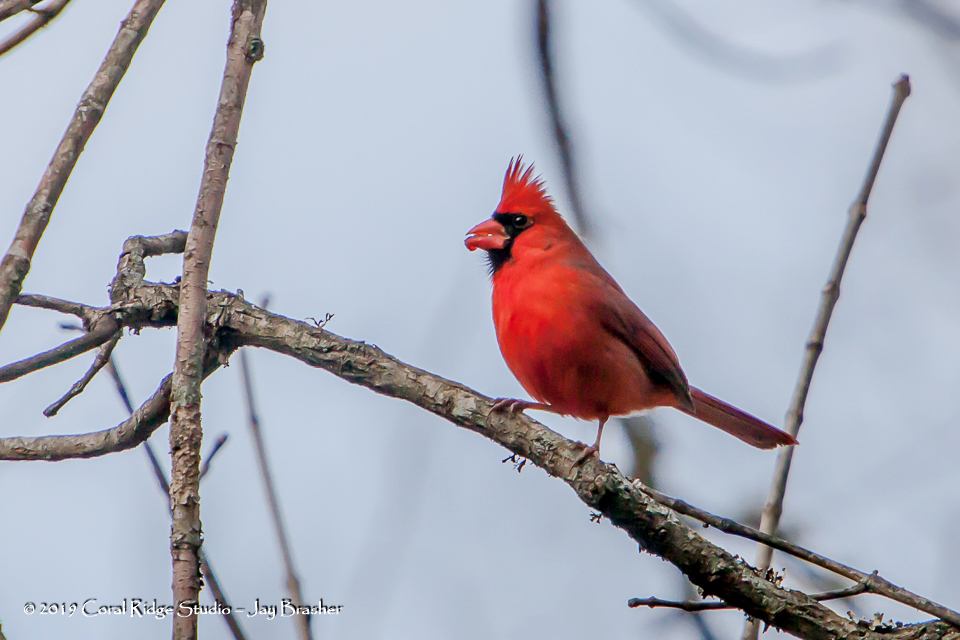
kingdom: Animalia
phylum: Chordata
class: Aves
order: Passeriformes
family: Cardinalidae
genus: Cardinalis
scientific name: Cardinalis cardinalis
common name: Northern cardinal
